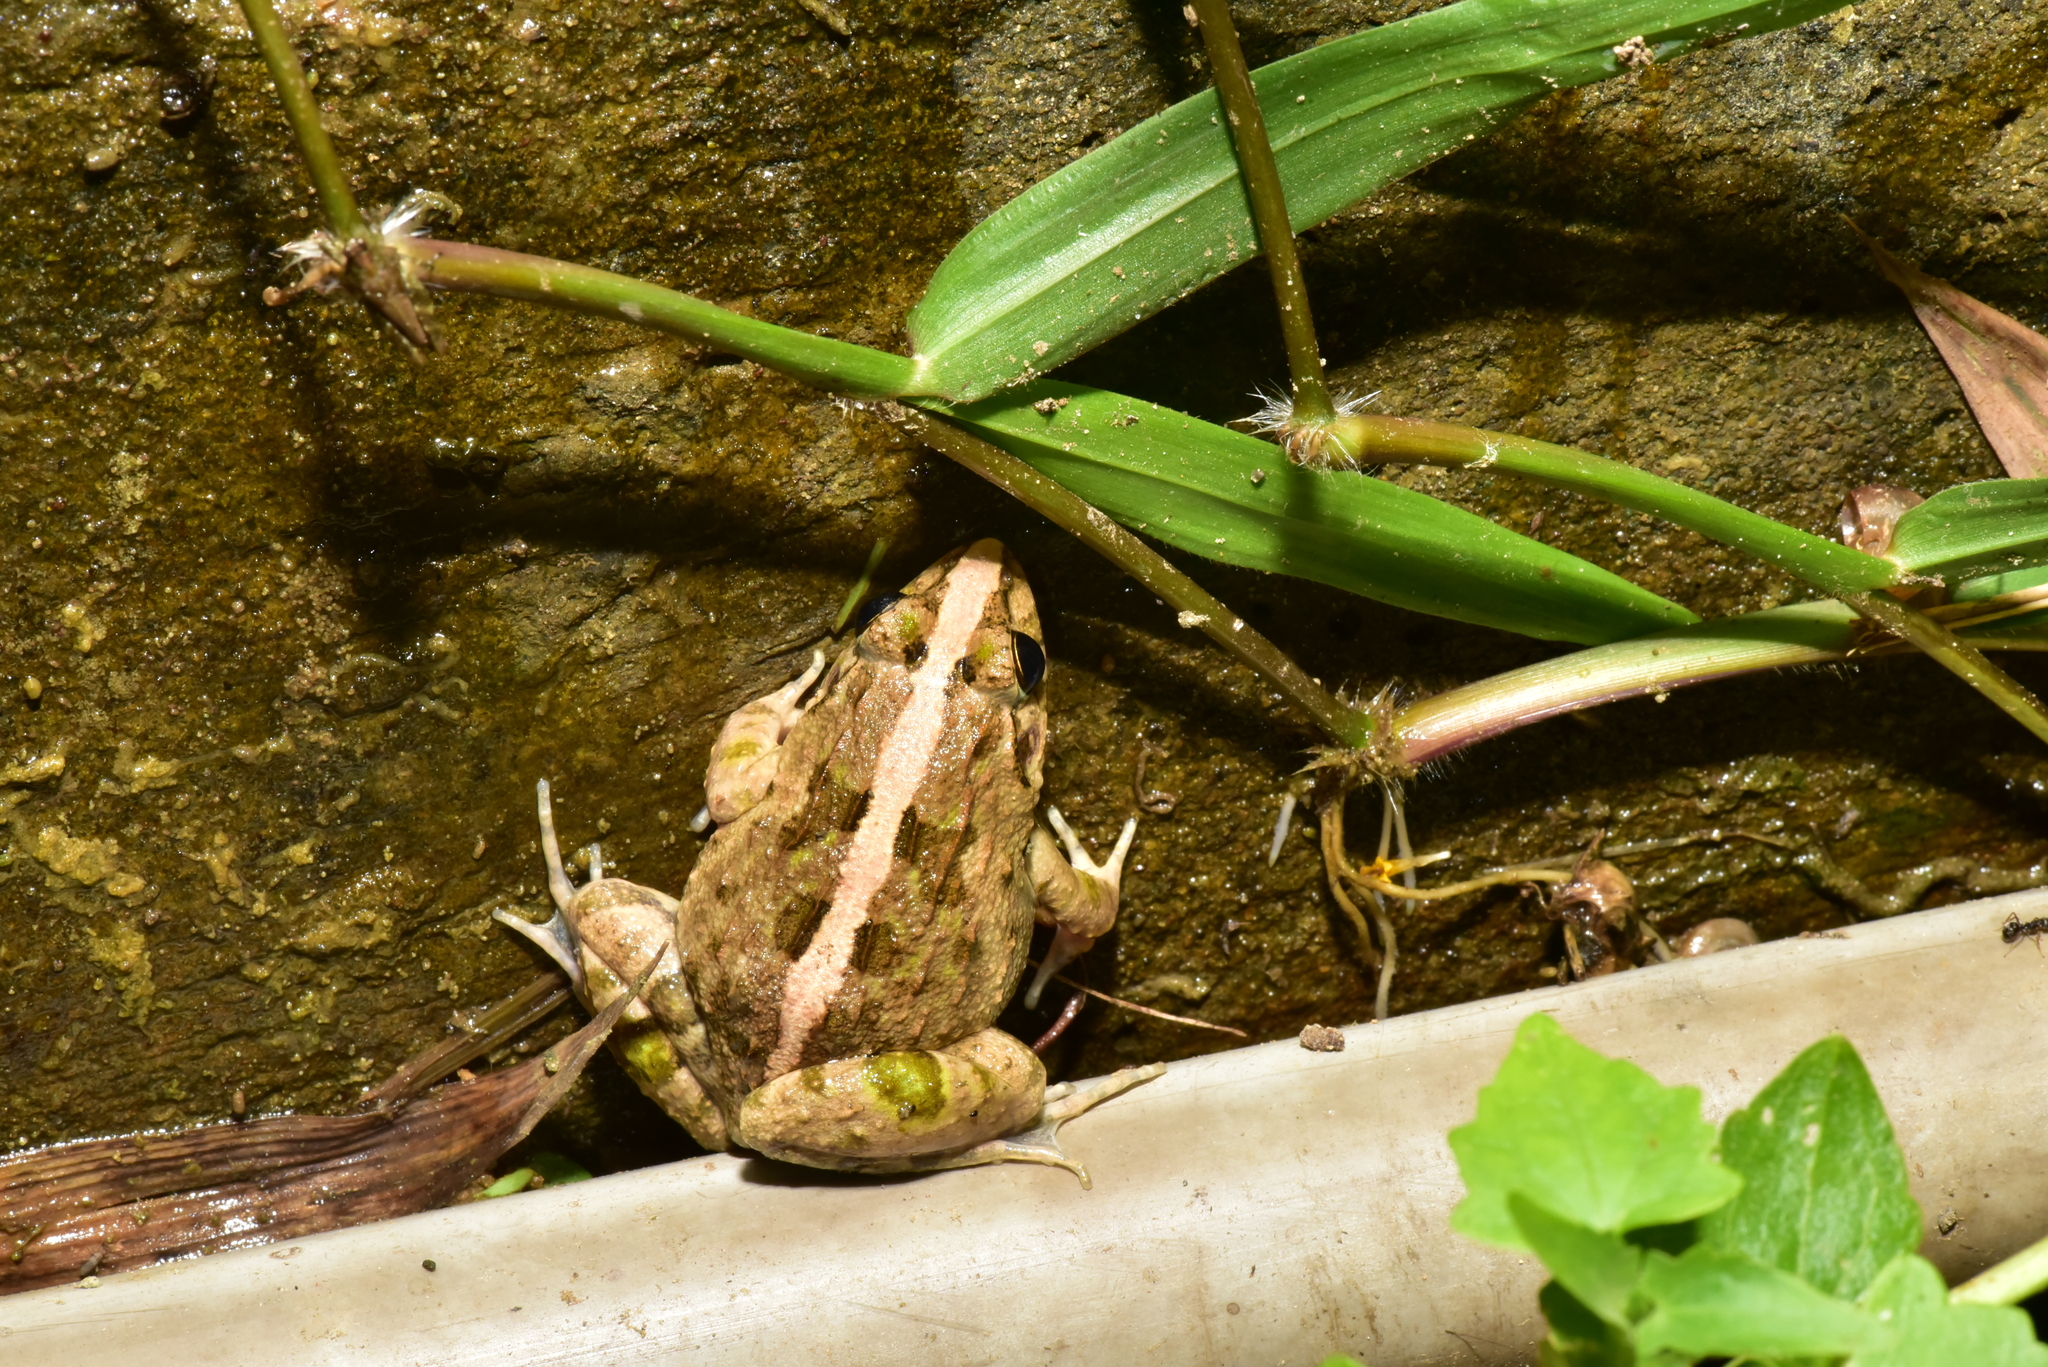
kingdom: Animalia
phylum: Chordata
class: Amphibia
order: Anura
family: Dicroglossidae
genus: Fejervarya
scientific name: Fejervarya limnocharis
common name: Asian grass frog/common pond frog/field frog/grass frog/indian rice frog
